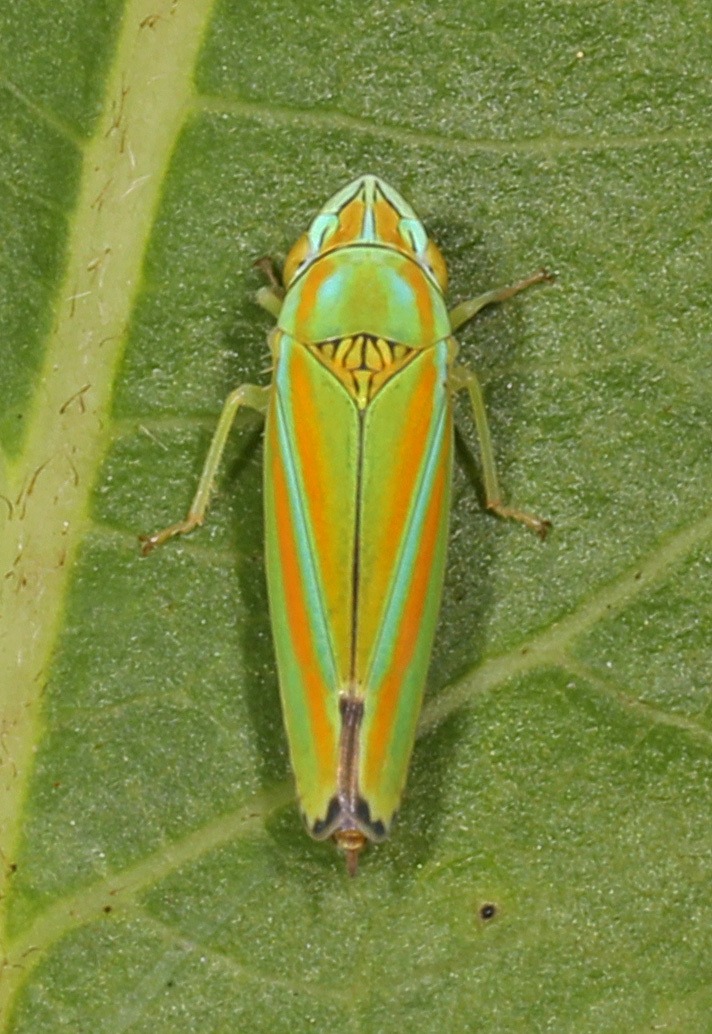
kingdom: Animalia
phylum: Arthropoda
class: Insecta
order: Hemiptera
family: Cicadellidae
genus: Graphocephala
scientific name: Graphocephala versuta
